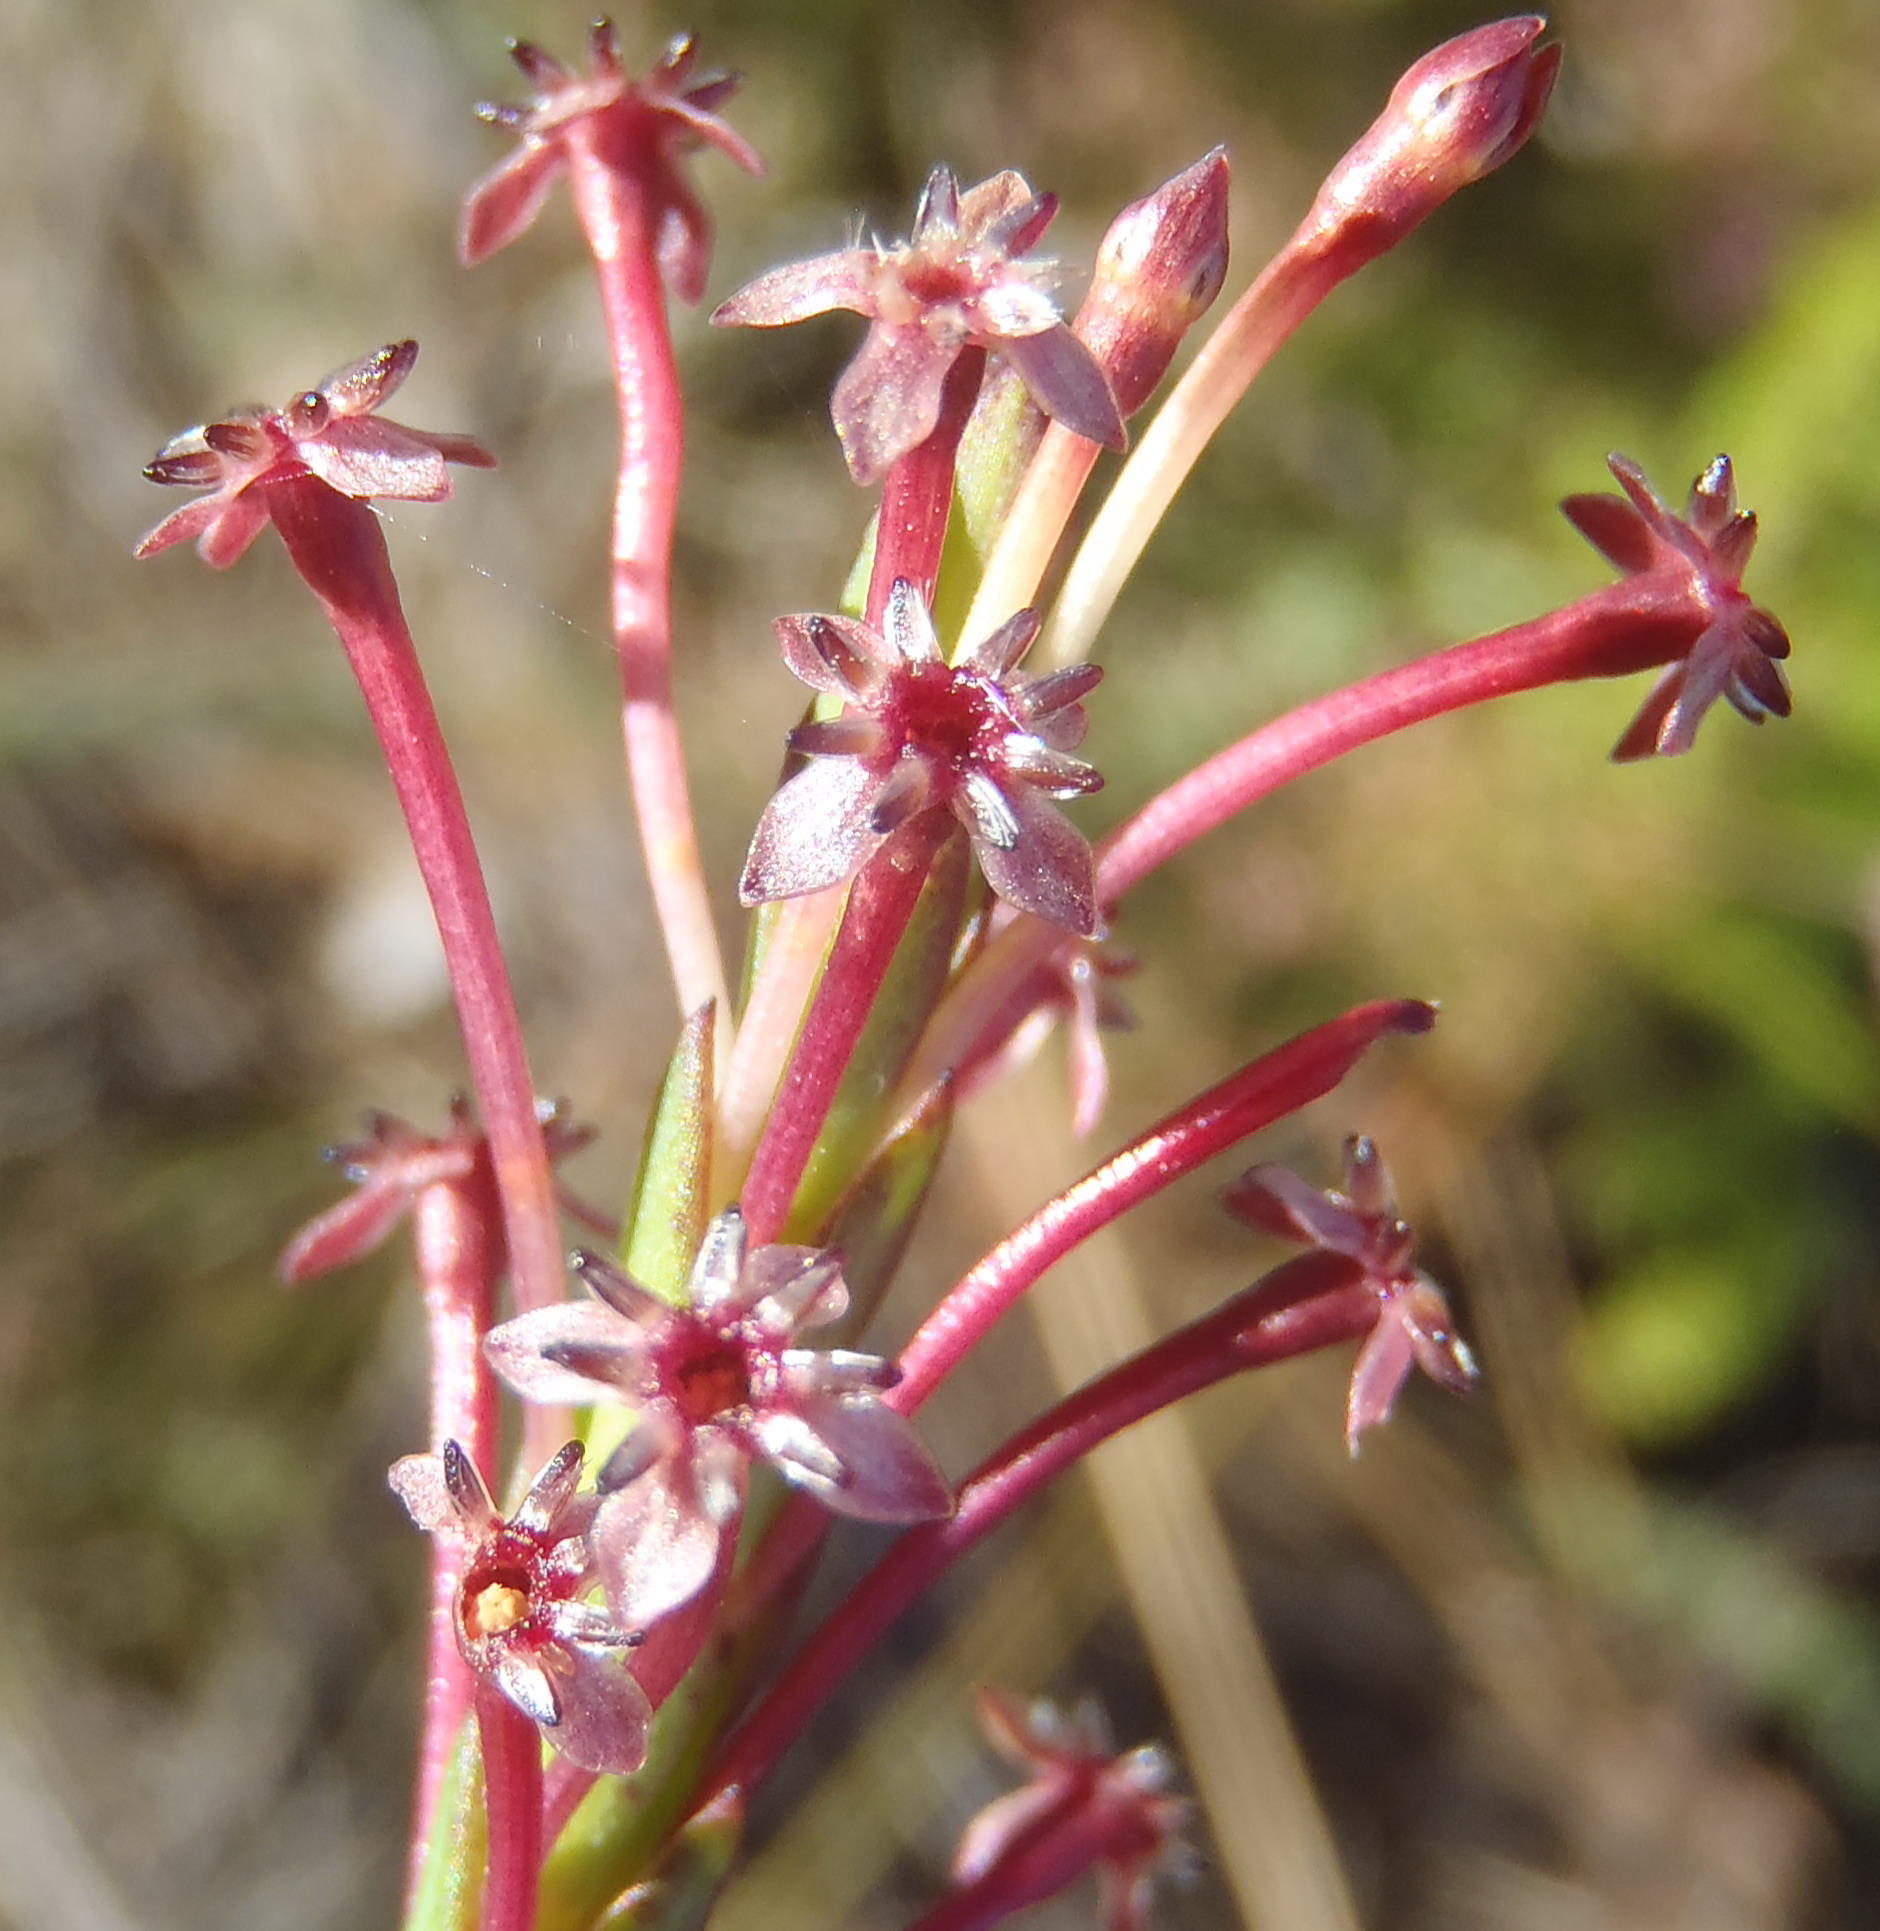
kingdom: Plantae
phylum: Tracheophyta
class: Magnoliopsida
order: Malvales
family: Thymelaeaceae
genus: Struthiola
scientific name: Struthiola macowanii
